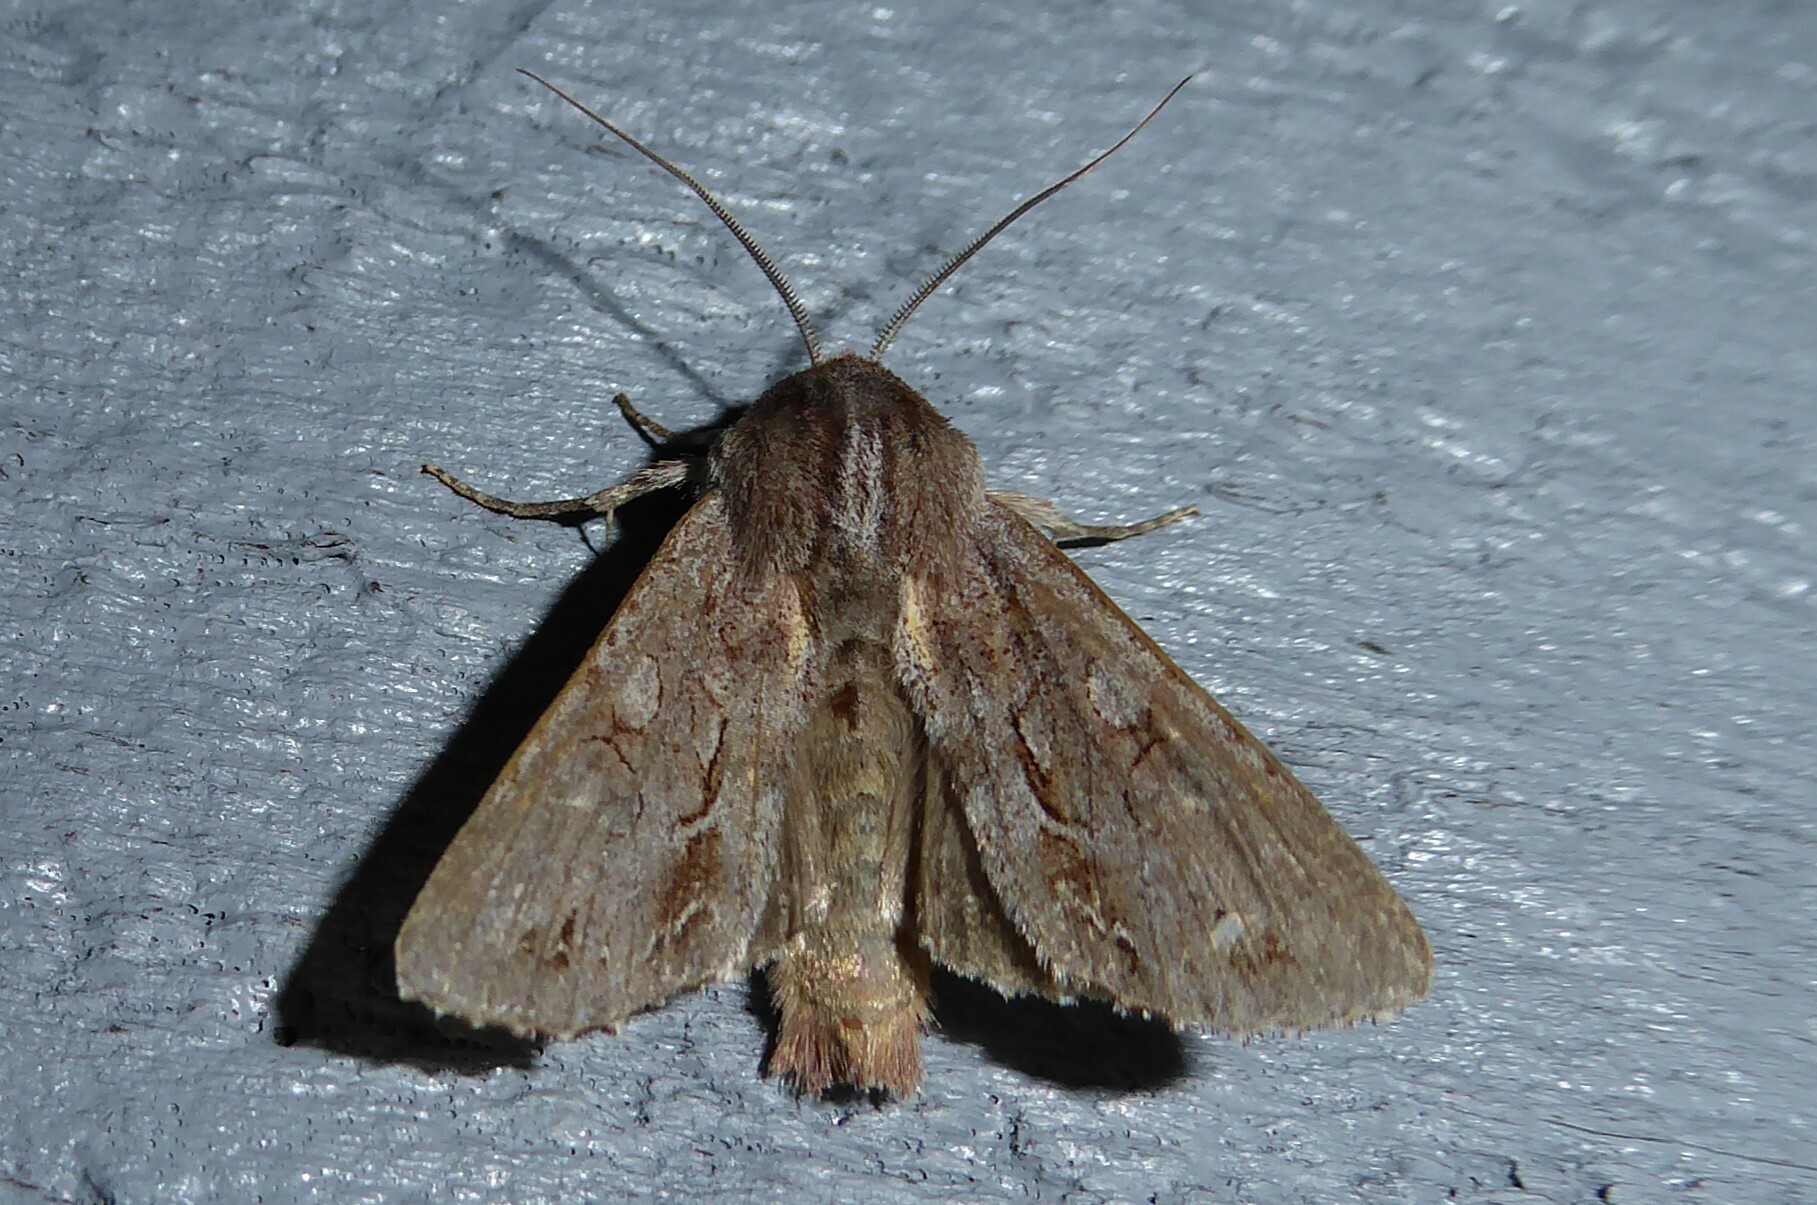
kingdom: Animalia
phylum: Arthropoda
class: Insecta
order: Lepidoptera
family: Noctuidae
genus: Ichneutica
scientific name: Ichneutica
